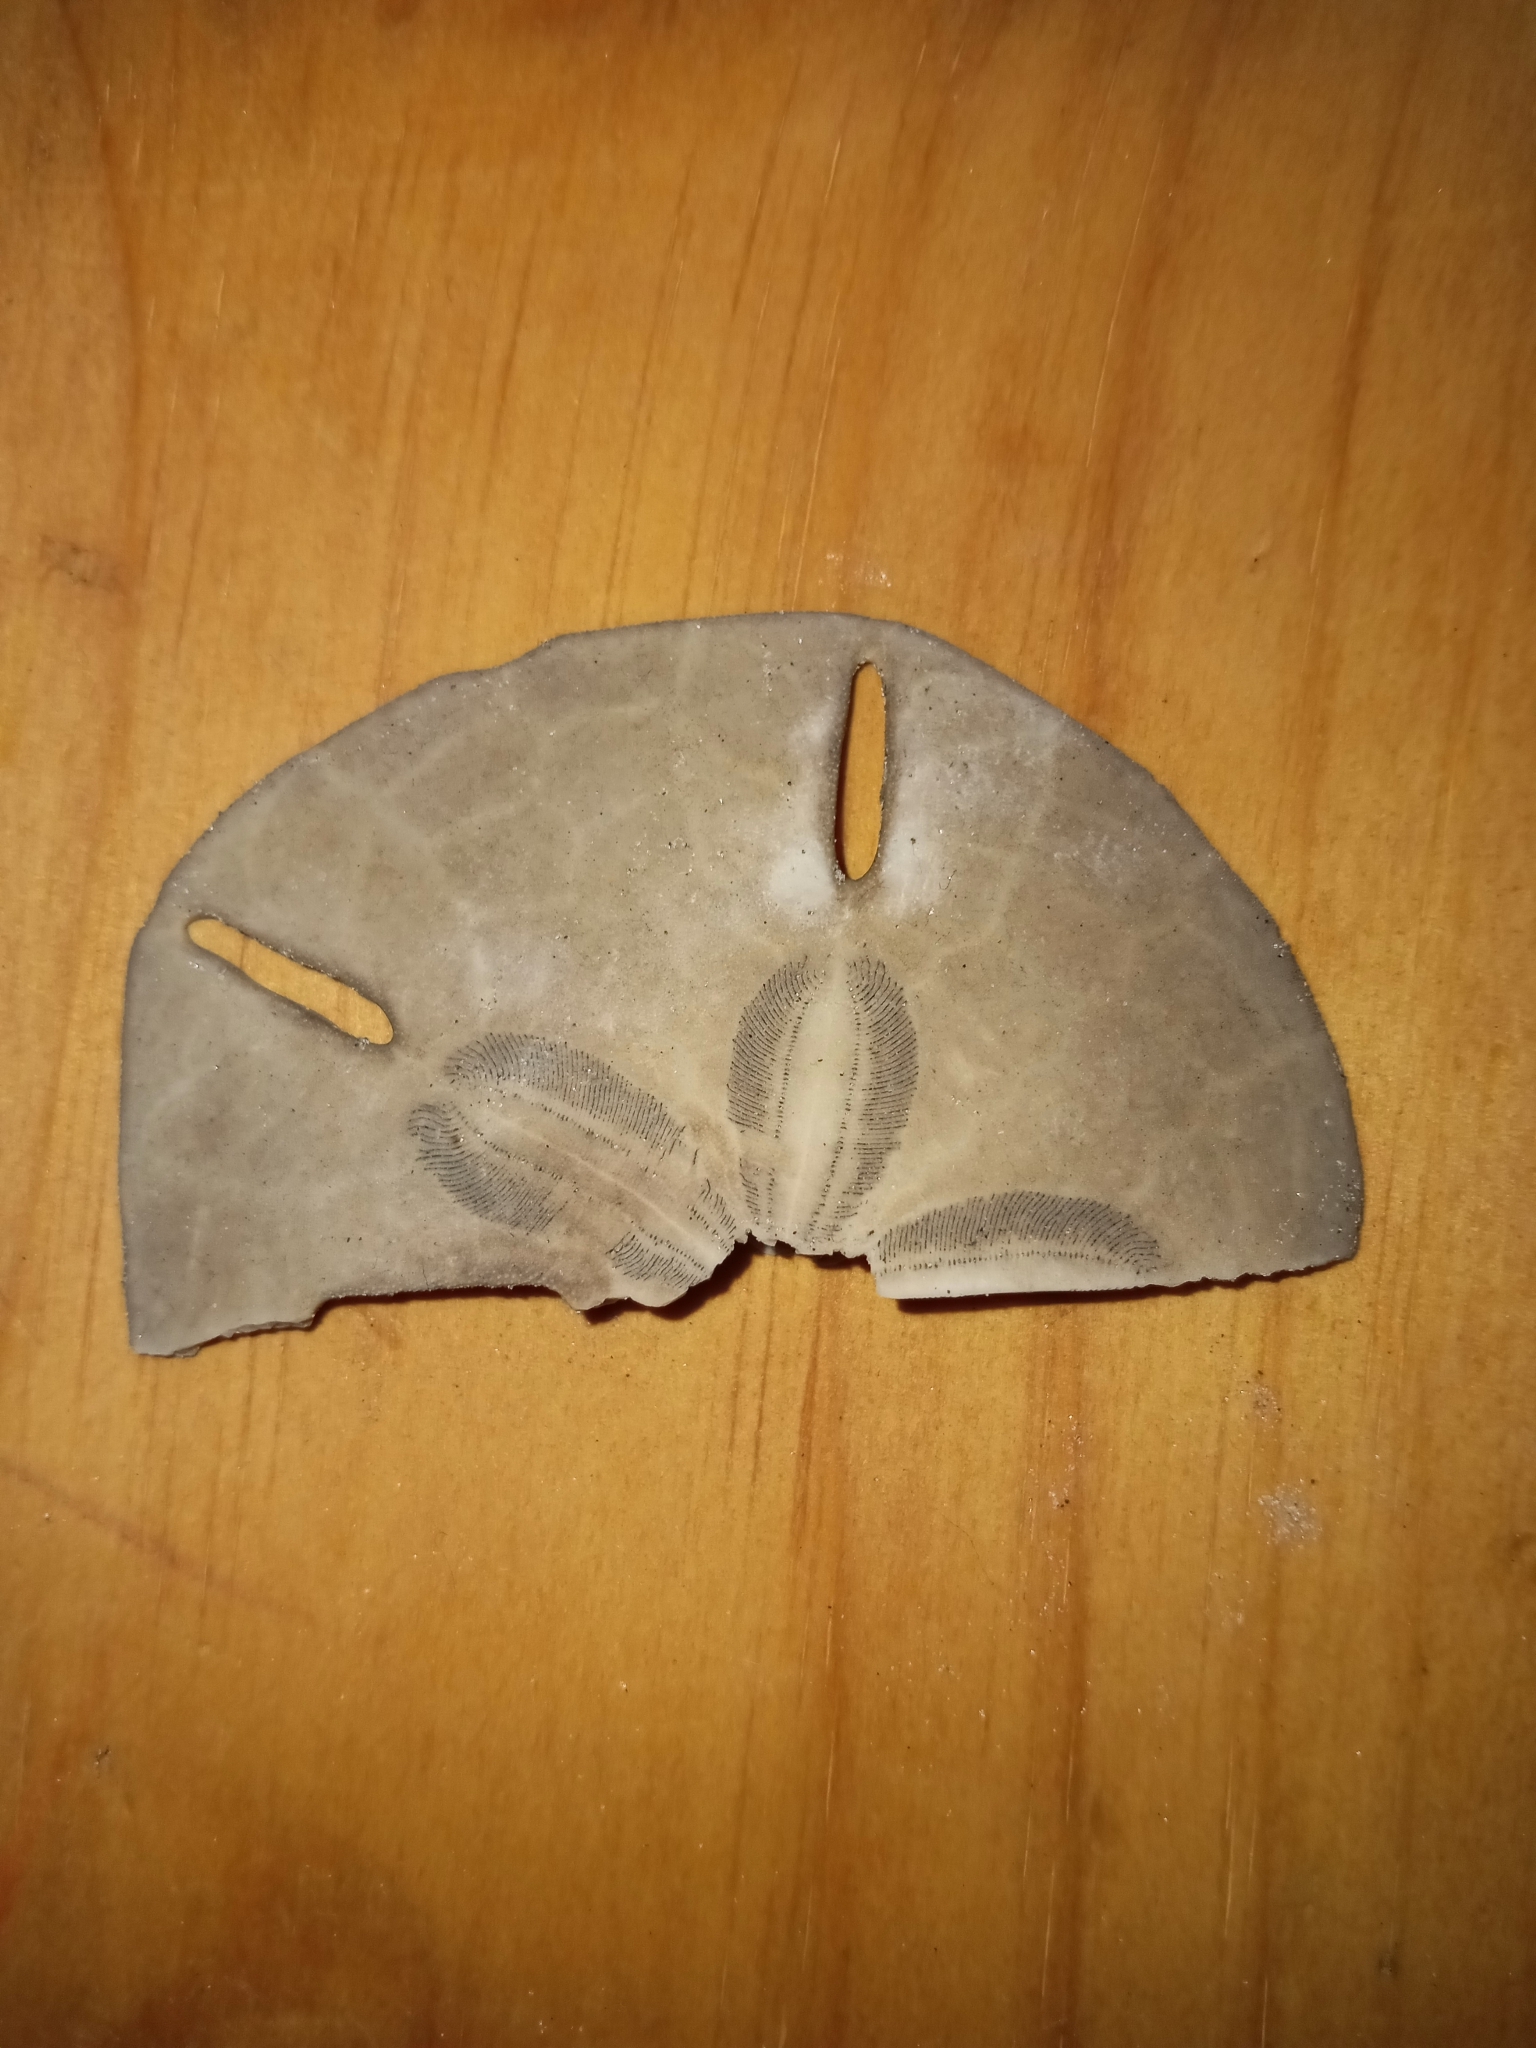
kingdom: Animalia
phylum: Echinodermata
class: Echinoidea
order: Echinolampadacea
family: Mellitidae
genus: Mellita
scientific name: Mellita isometra
